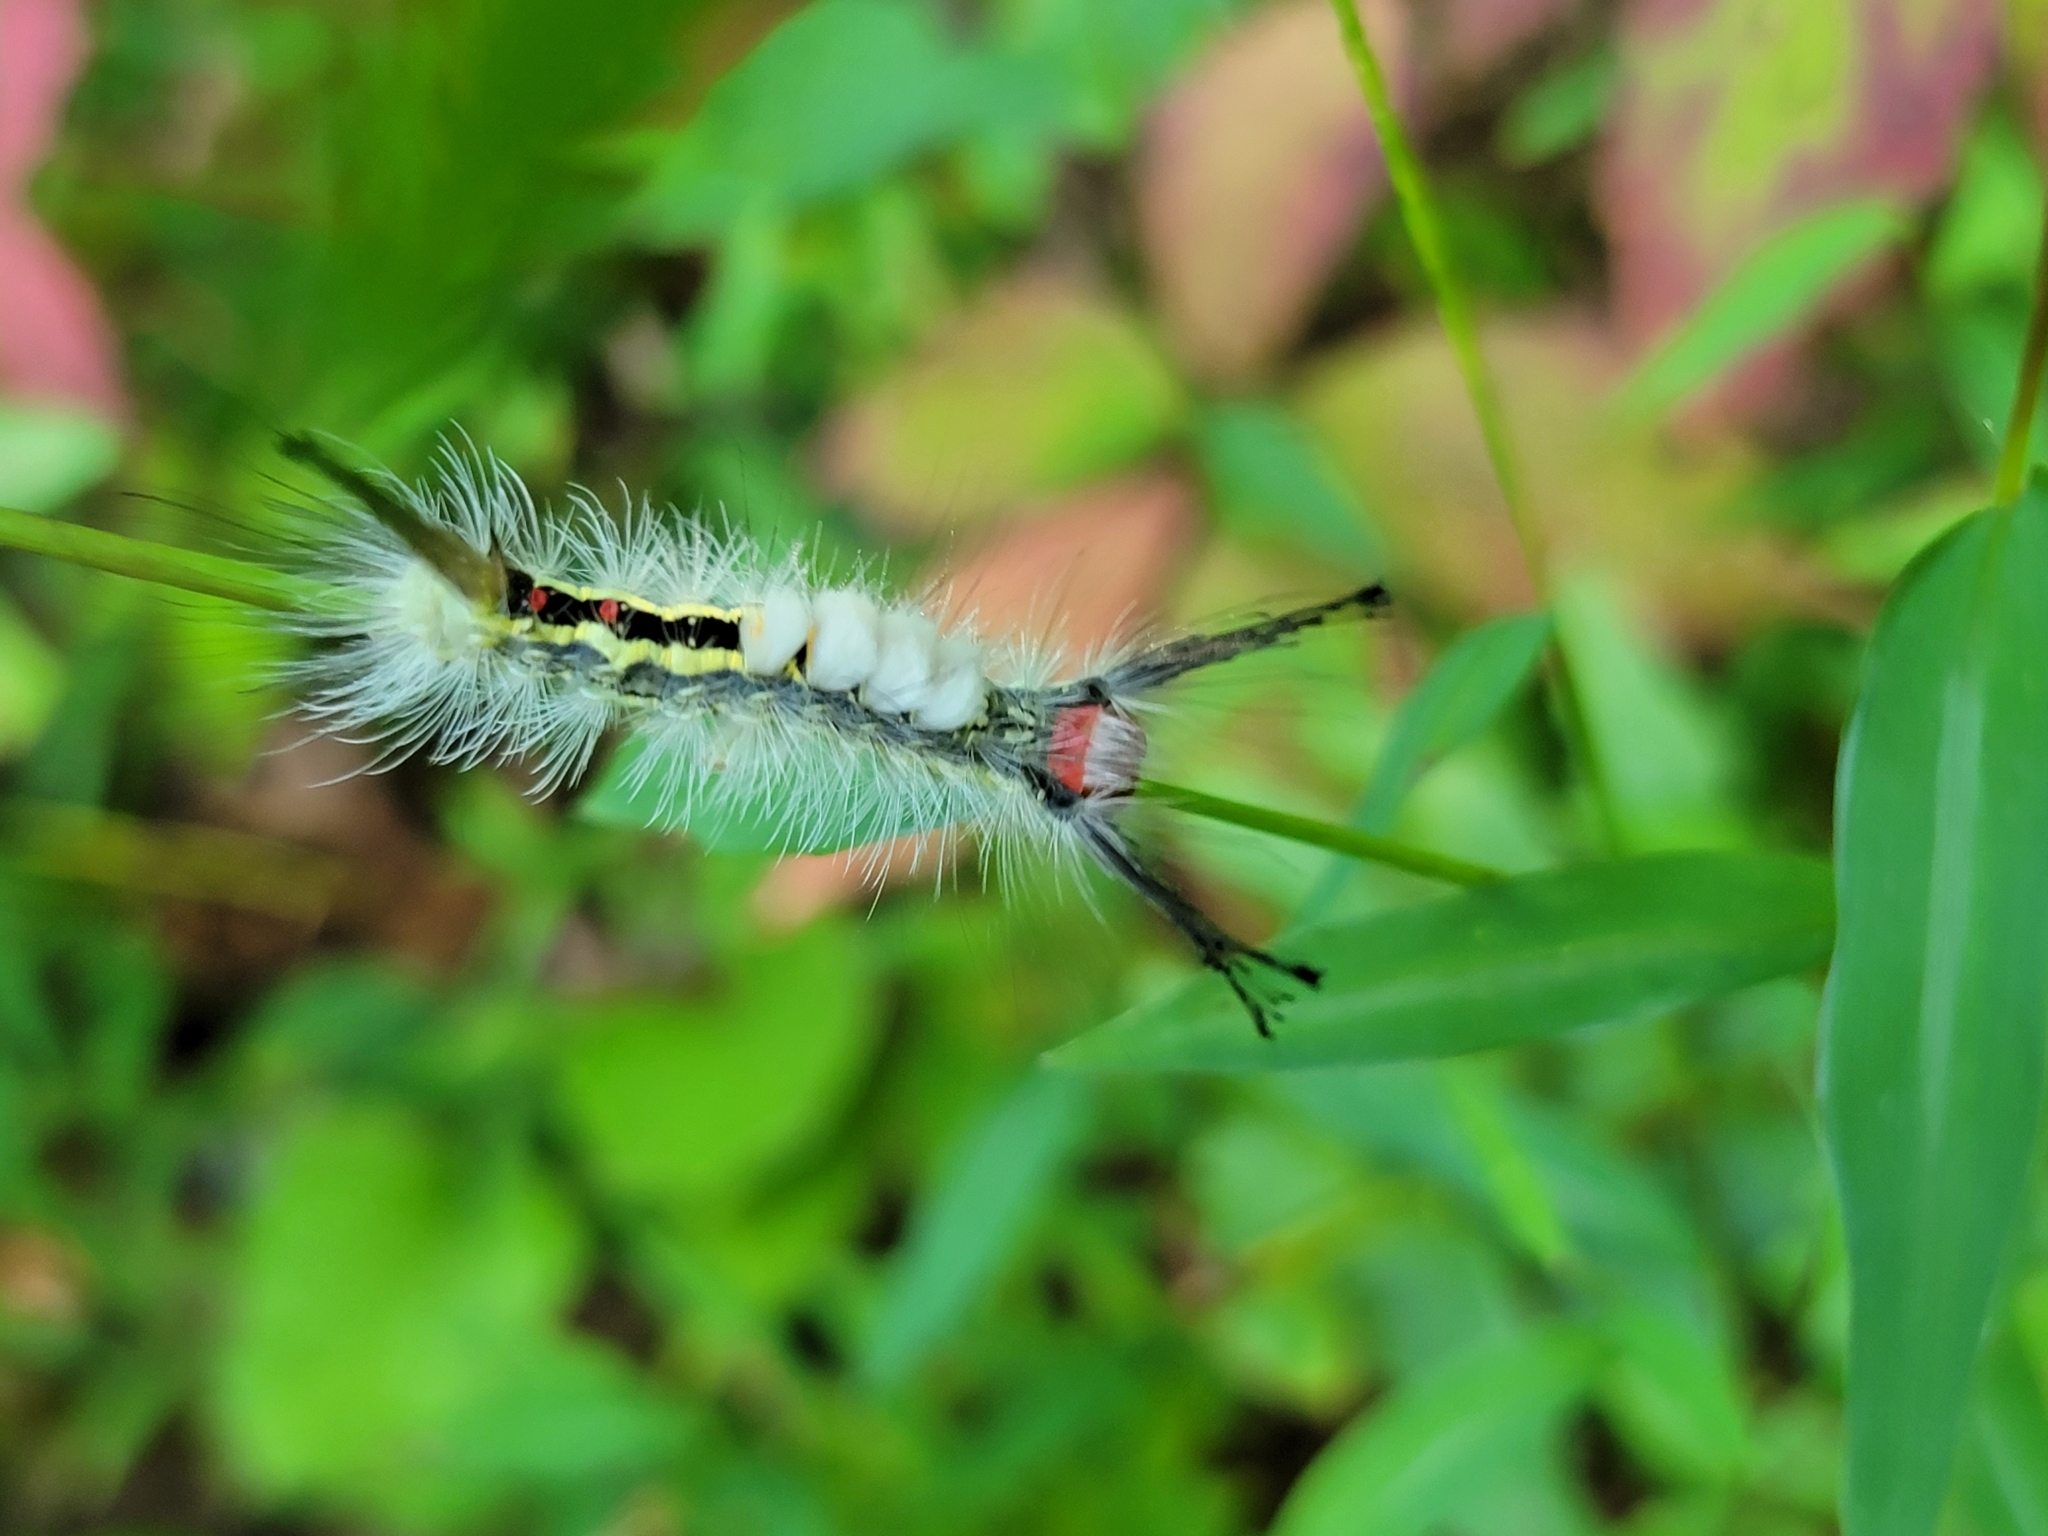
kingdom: Animalia
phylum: Arthropoda
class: Insecta
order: Lepidoptera
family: Erebidae
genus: Orgyia
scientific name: Orgyia leucostigma
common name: White-marked tussock moth
